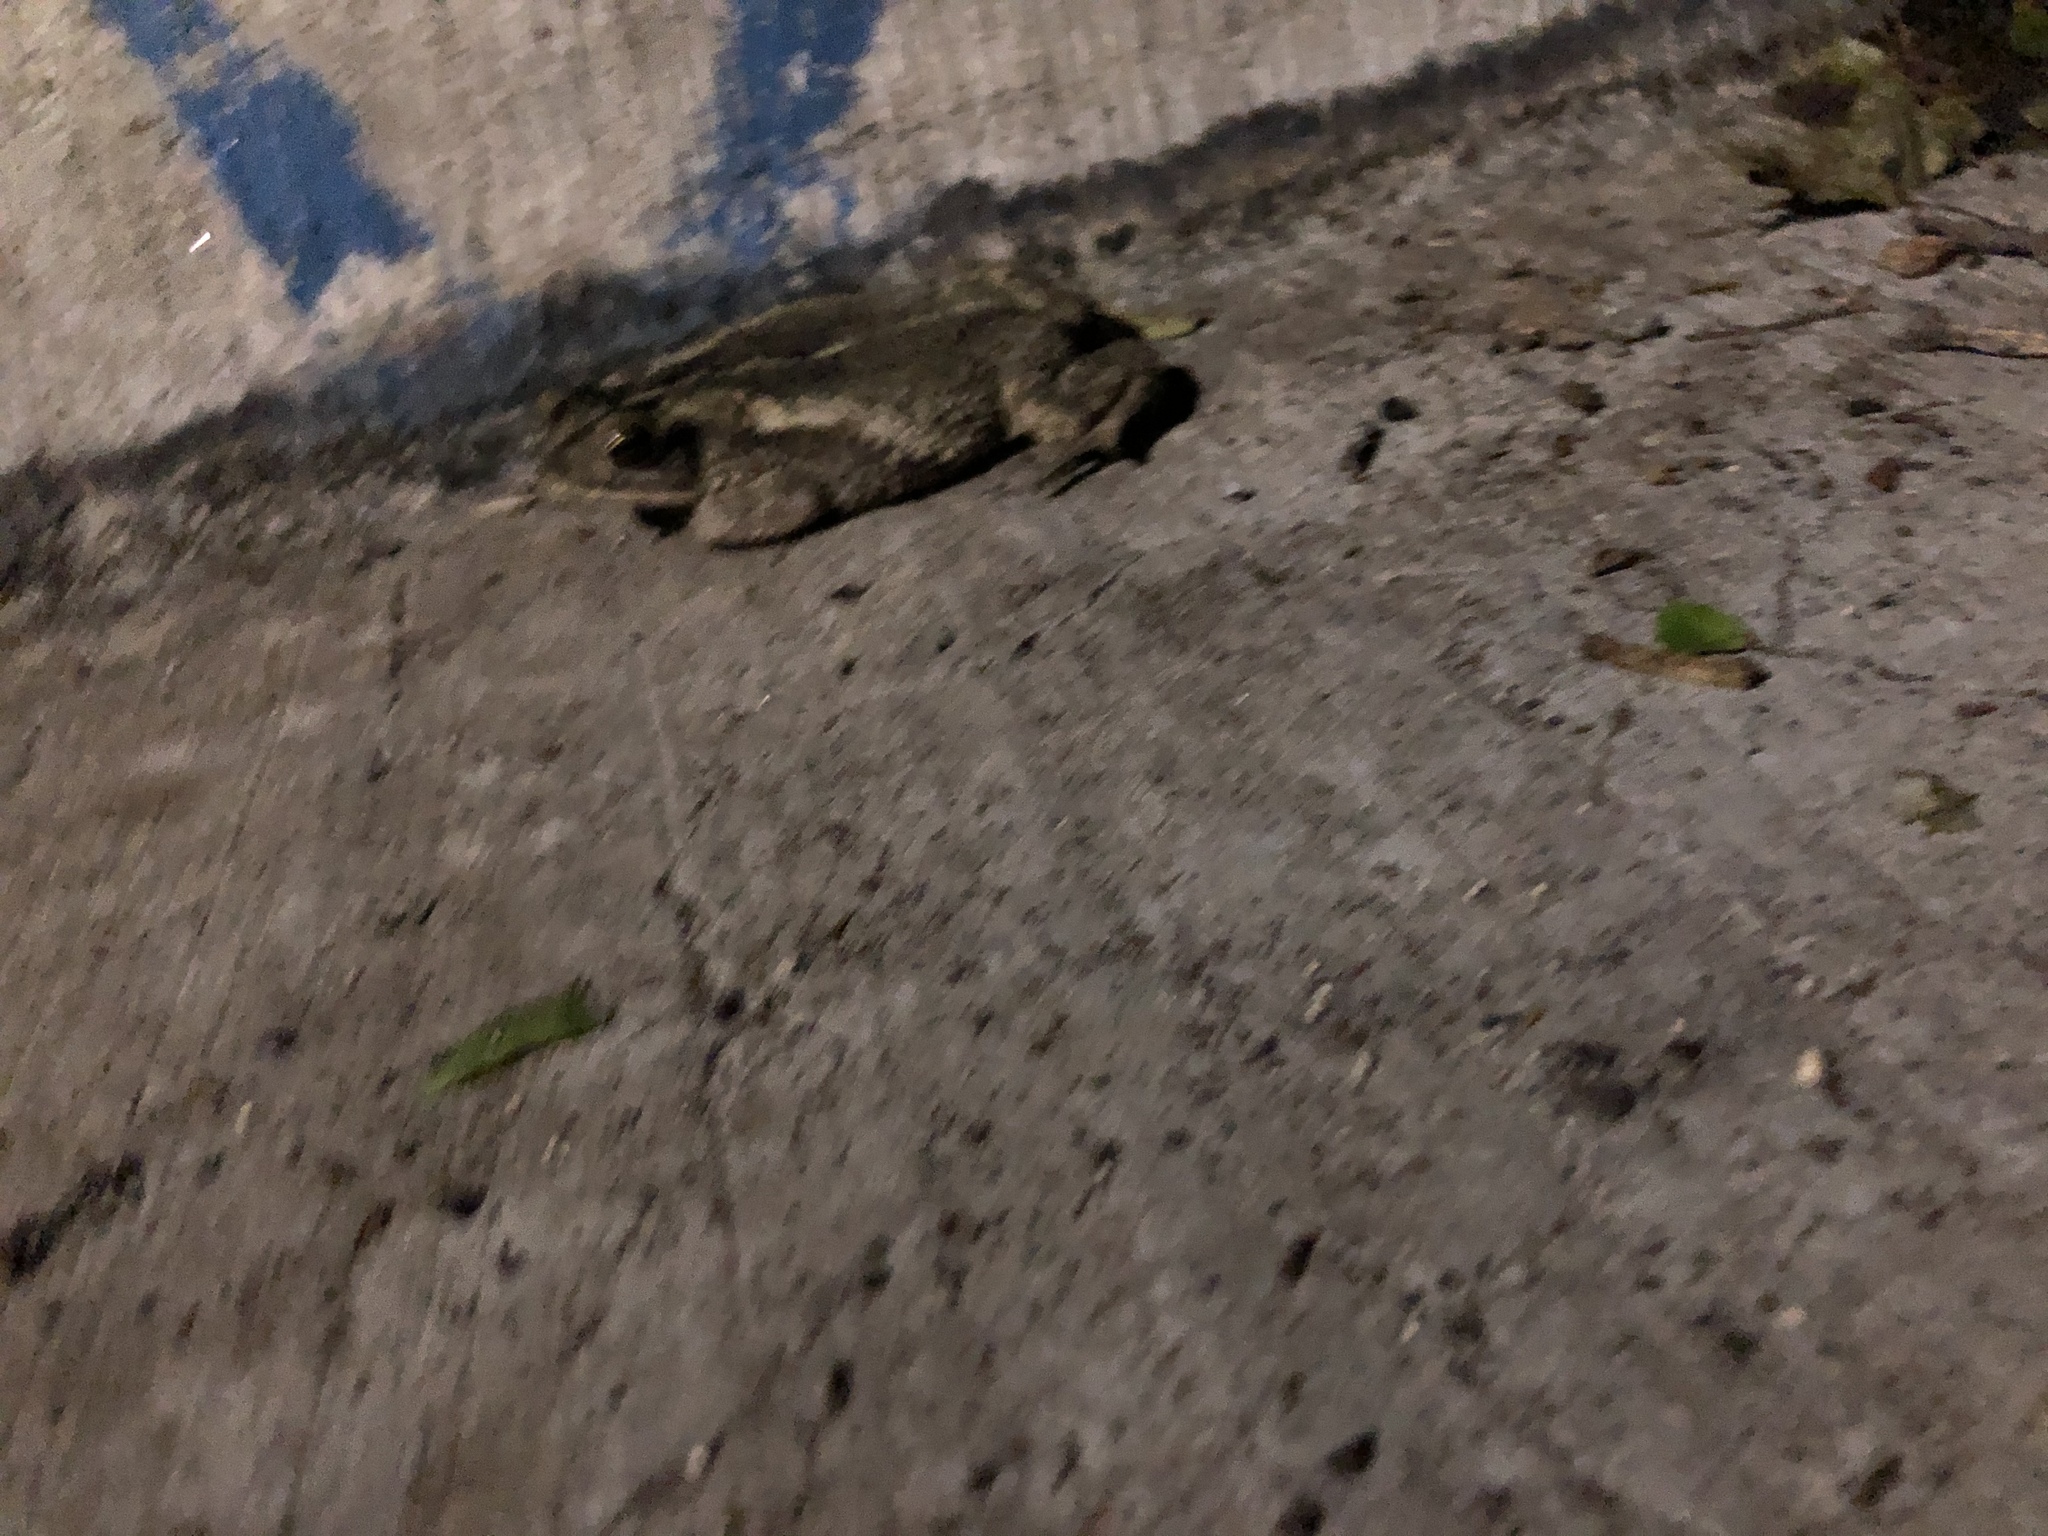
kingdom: Animalia
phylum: Chordata
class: Amphibia
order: Anura
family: Bufonidae
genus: Incilius
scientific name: Incilius nebulifer
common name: Gulf coast toad
